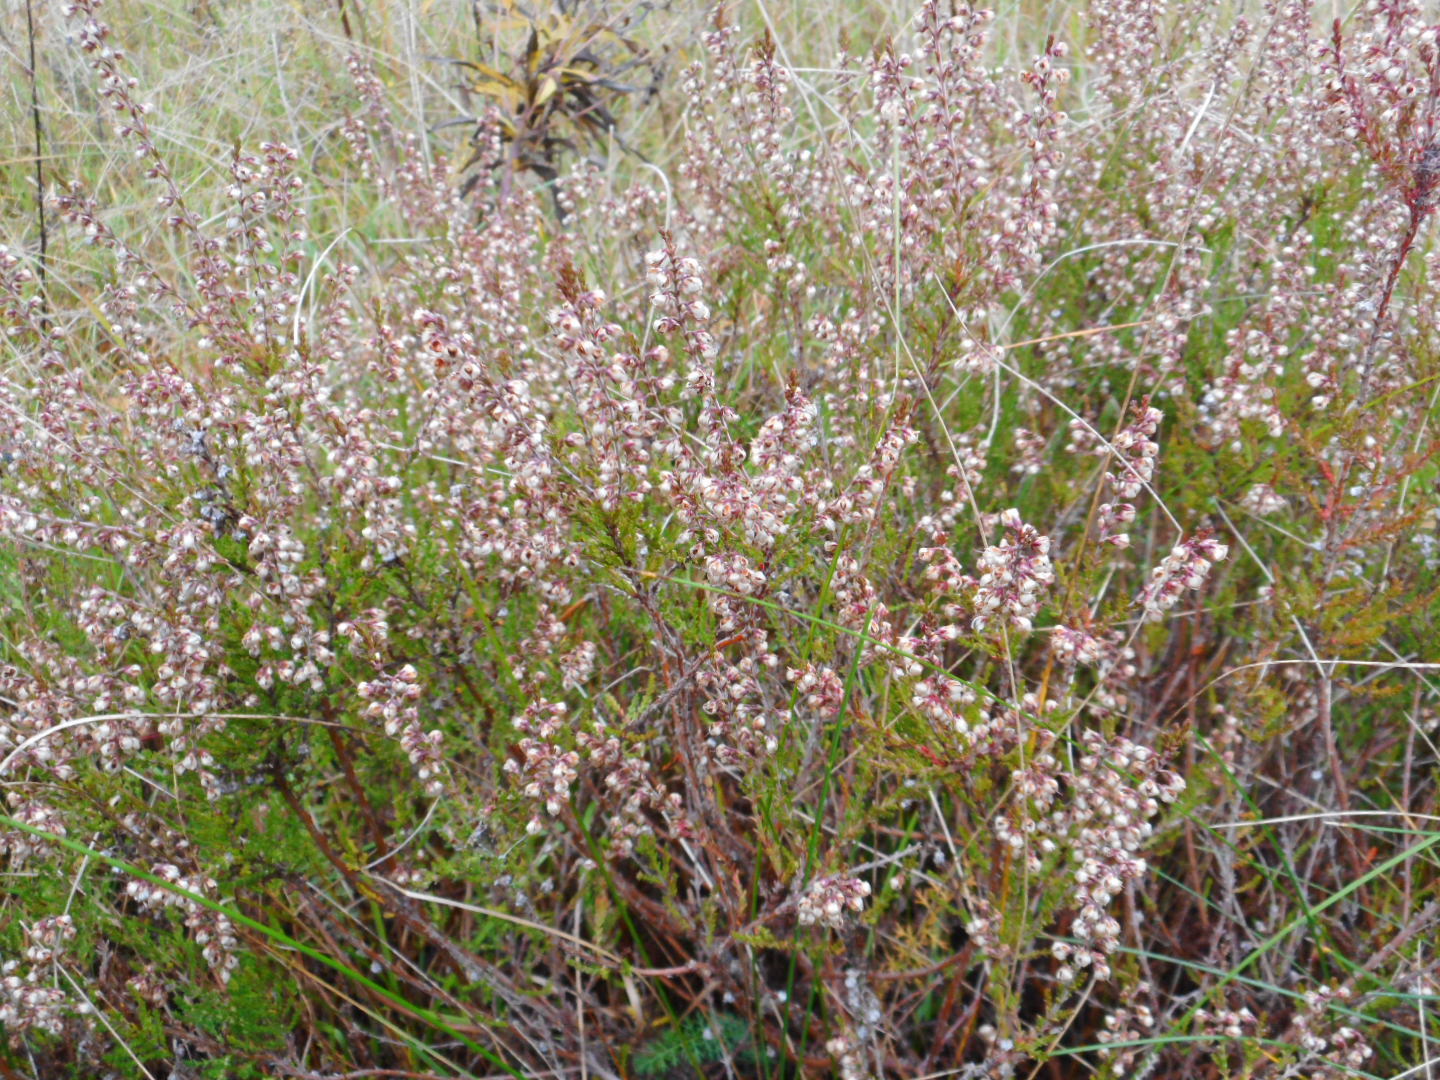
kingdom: Plantae
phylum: Tracheophyta
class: Magnoliopsida
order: Ericales
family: Ericaceae
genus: Calluna
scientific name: Calluna vulgaris
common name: Heather
